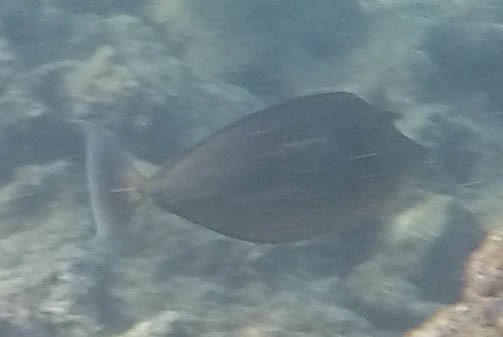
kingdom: Animalia
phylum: Chordata
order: Perciformes
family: Acanthuridae
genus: Naso
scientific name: Naso unicornis
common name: Bluespine unicornfish
